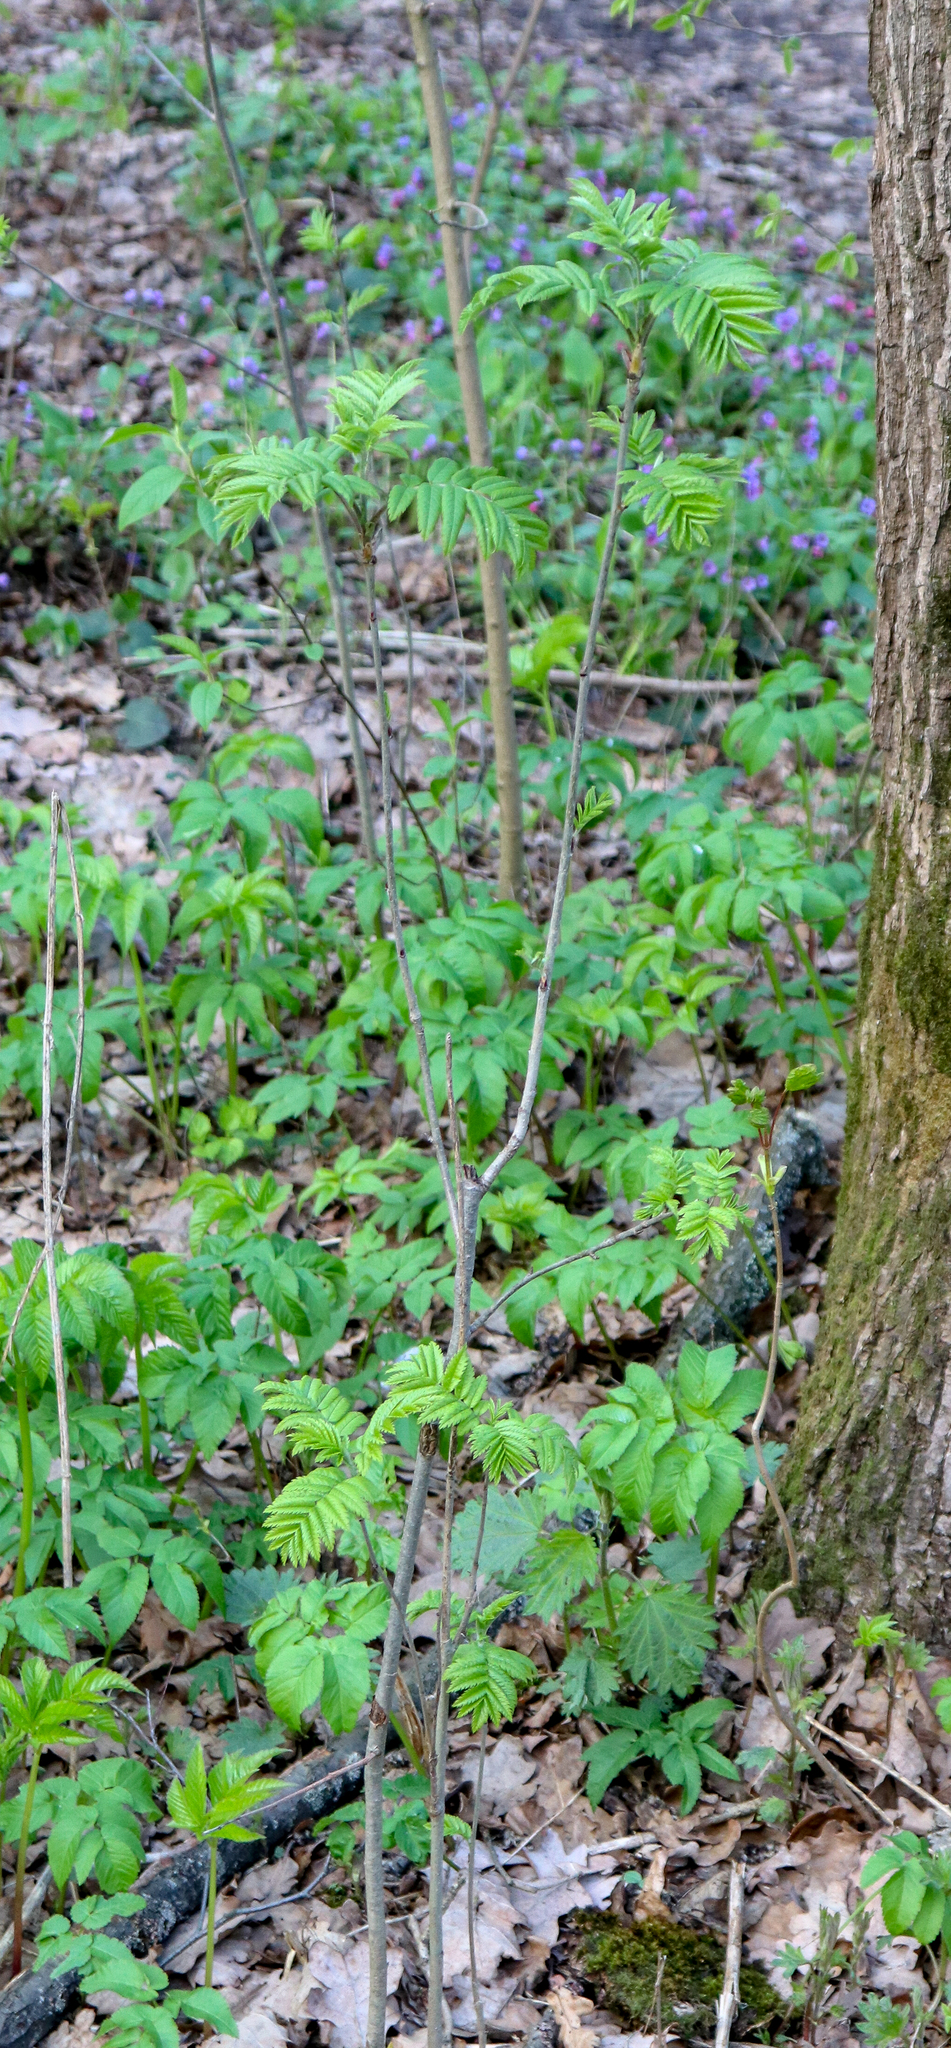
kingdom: Plantae
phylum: Tracheophyta
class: Magnoliopsida
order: Rosales
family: Rosaceae
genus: Sorbus
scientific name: Sorbus aucuparia
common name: Rowan
